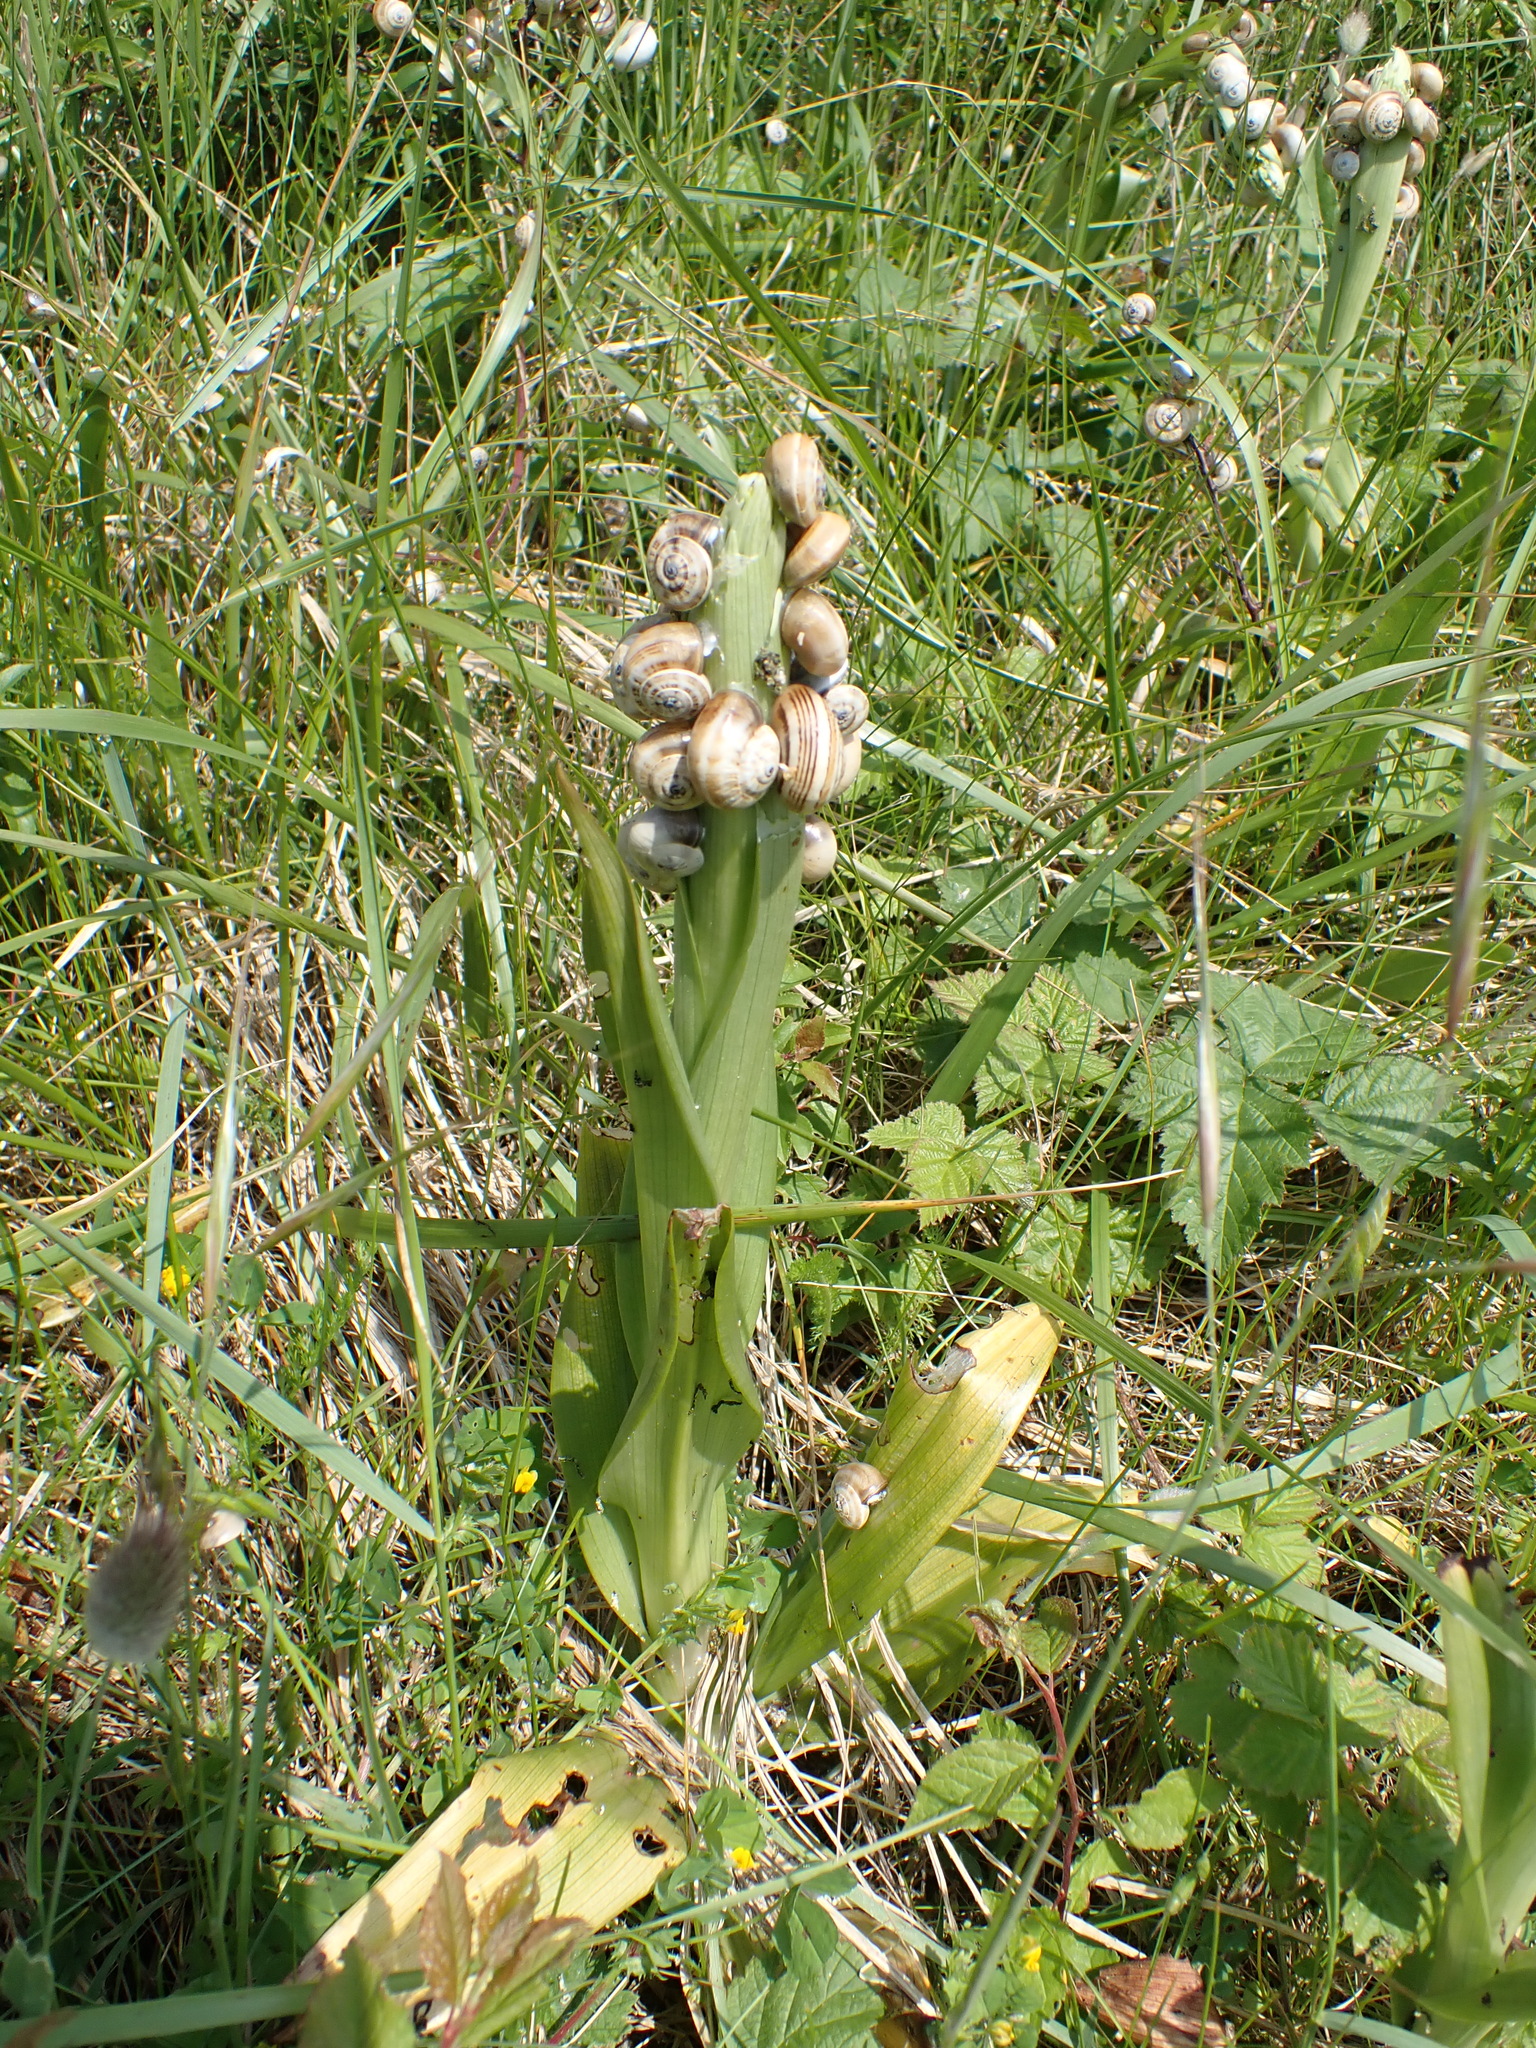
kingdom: Plantae
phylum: Tracheophyta
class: Liliopsida
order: Asparagales
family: Orchidaceae
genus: Himantoglossum
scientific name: Himantoglossum hircinum
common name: Lizard orchid
